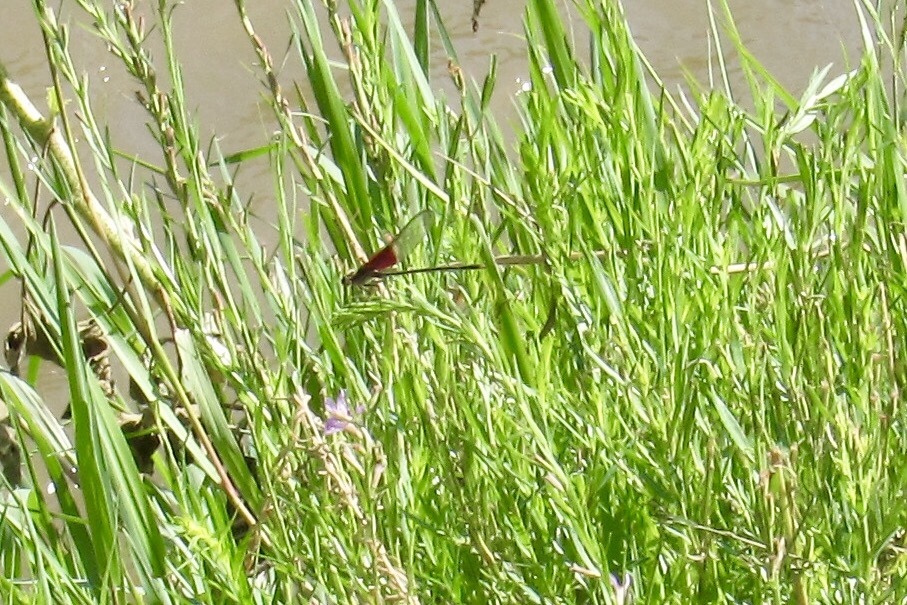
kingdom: Animalia
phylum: Arthropoda
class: Insecta
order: Odonata
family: Calopterygidae
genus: Hetaerina
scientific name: Hetaerina vulnerata
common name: Canyon rubyspot
